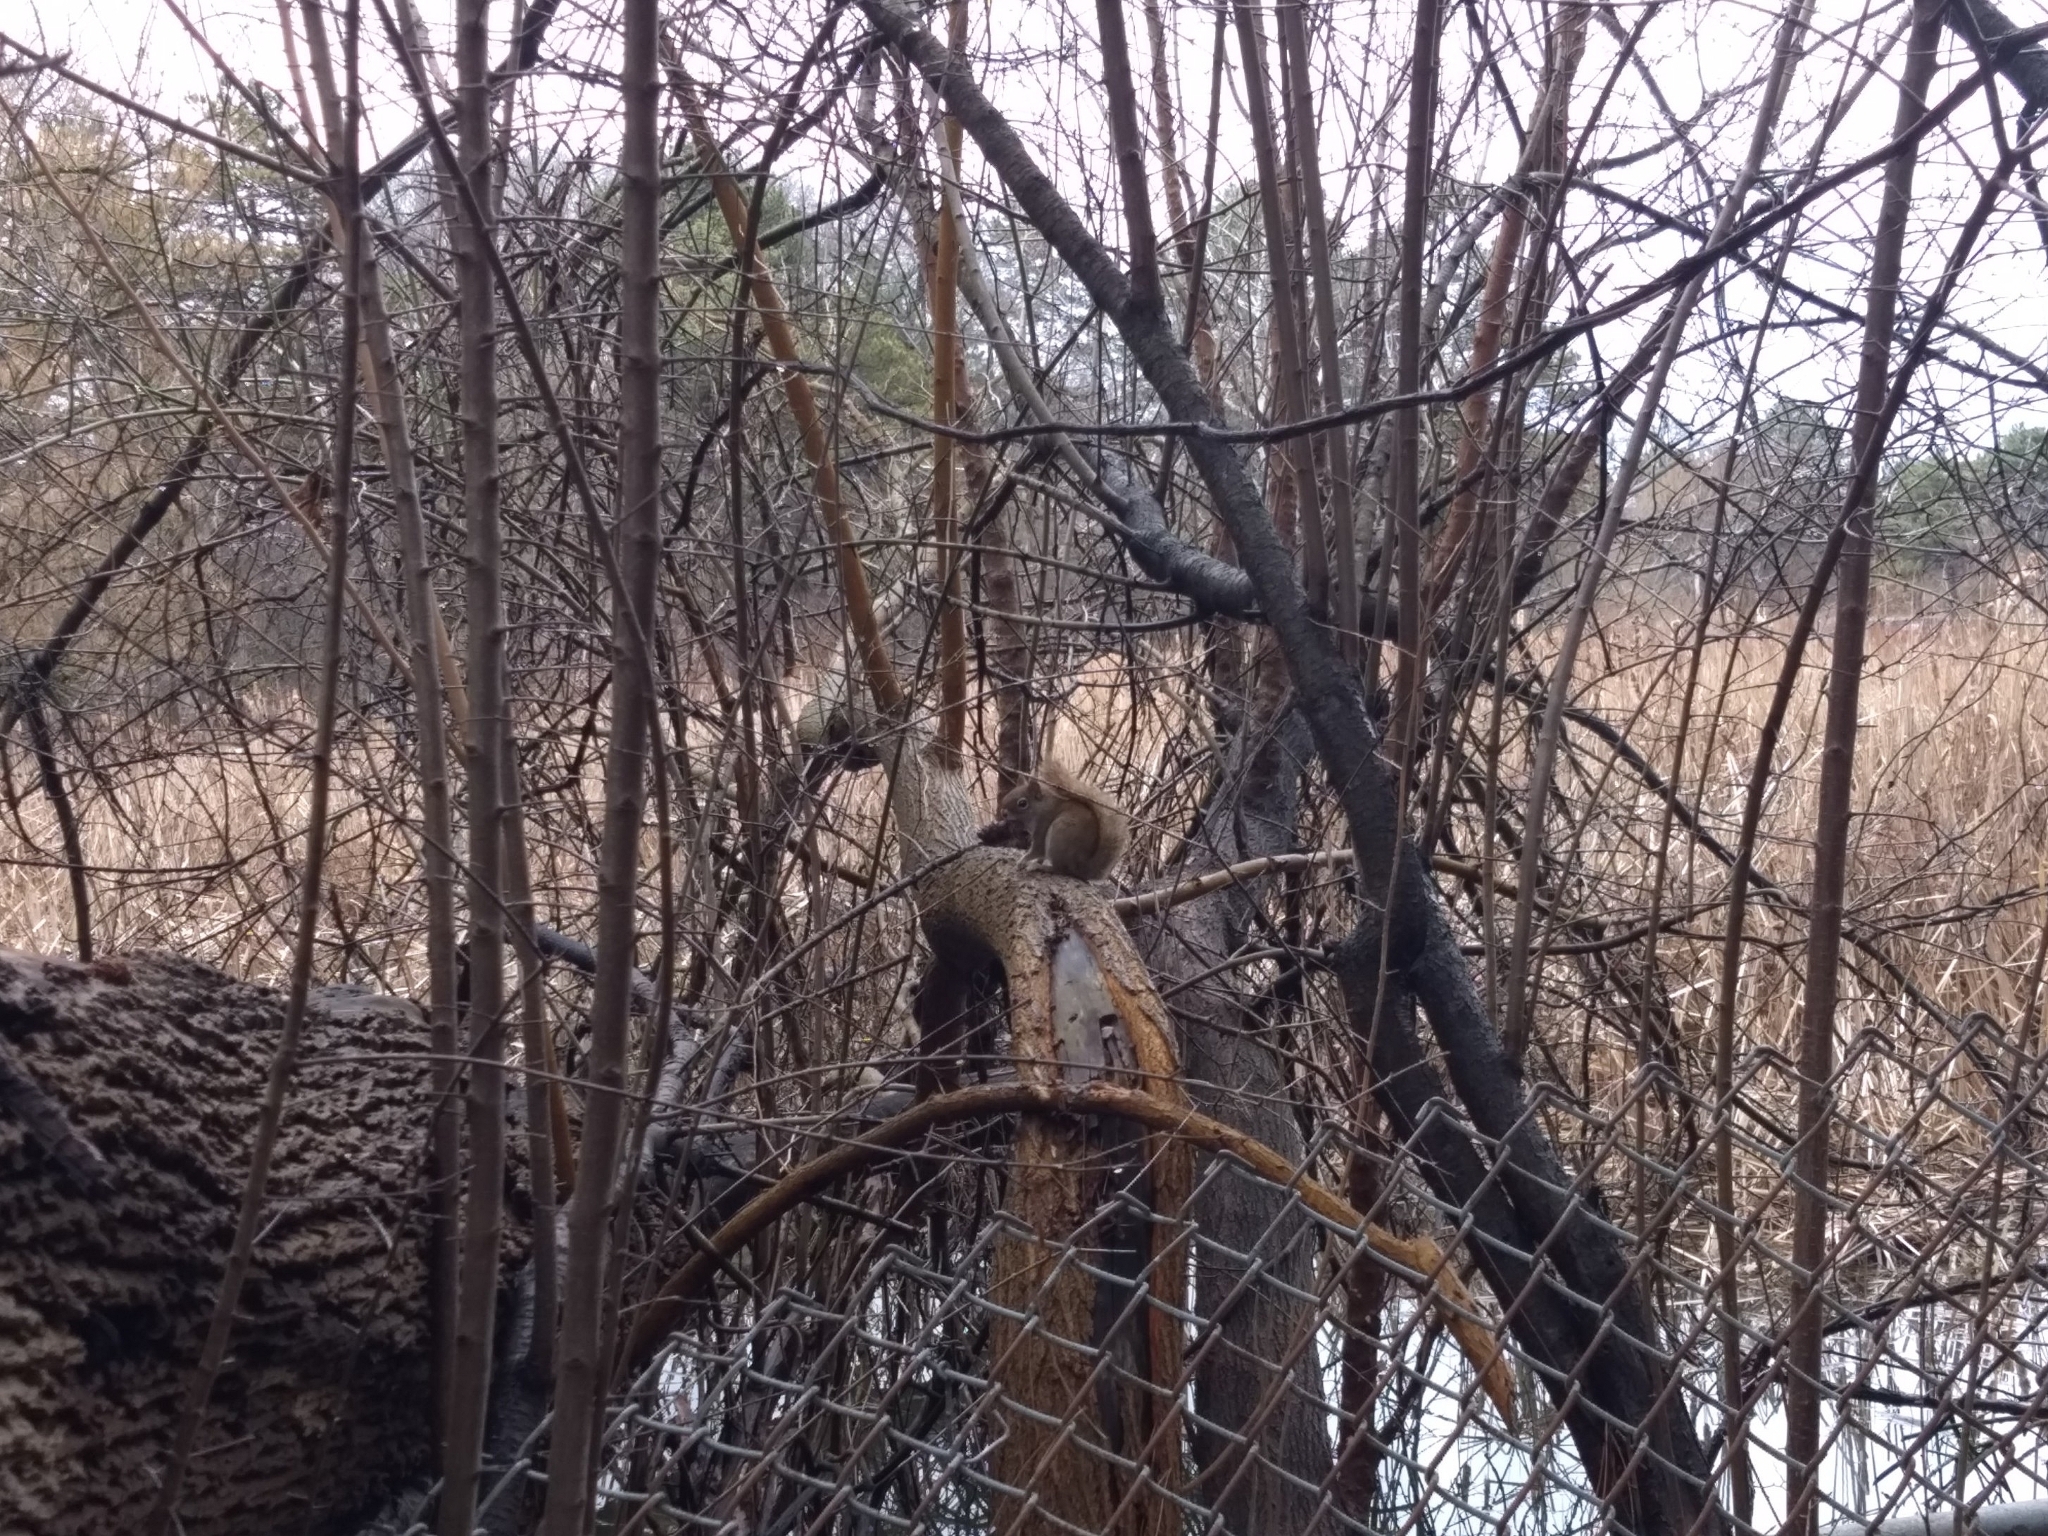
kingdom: Animalia
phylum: Chordata
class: Mammalia
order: Rodentia
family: Sciuridae
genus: Tamiasciurus
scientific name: Tamiasciurus hudsonicus
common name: Red squirrel
